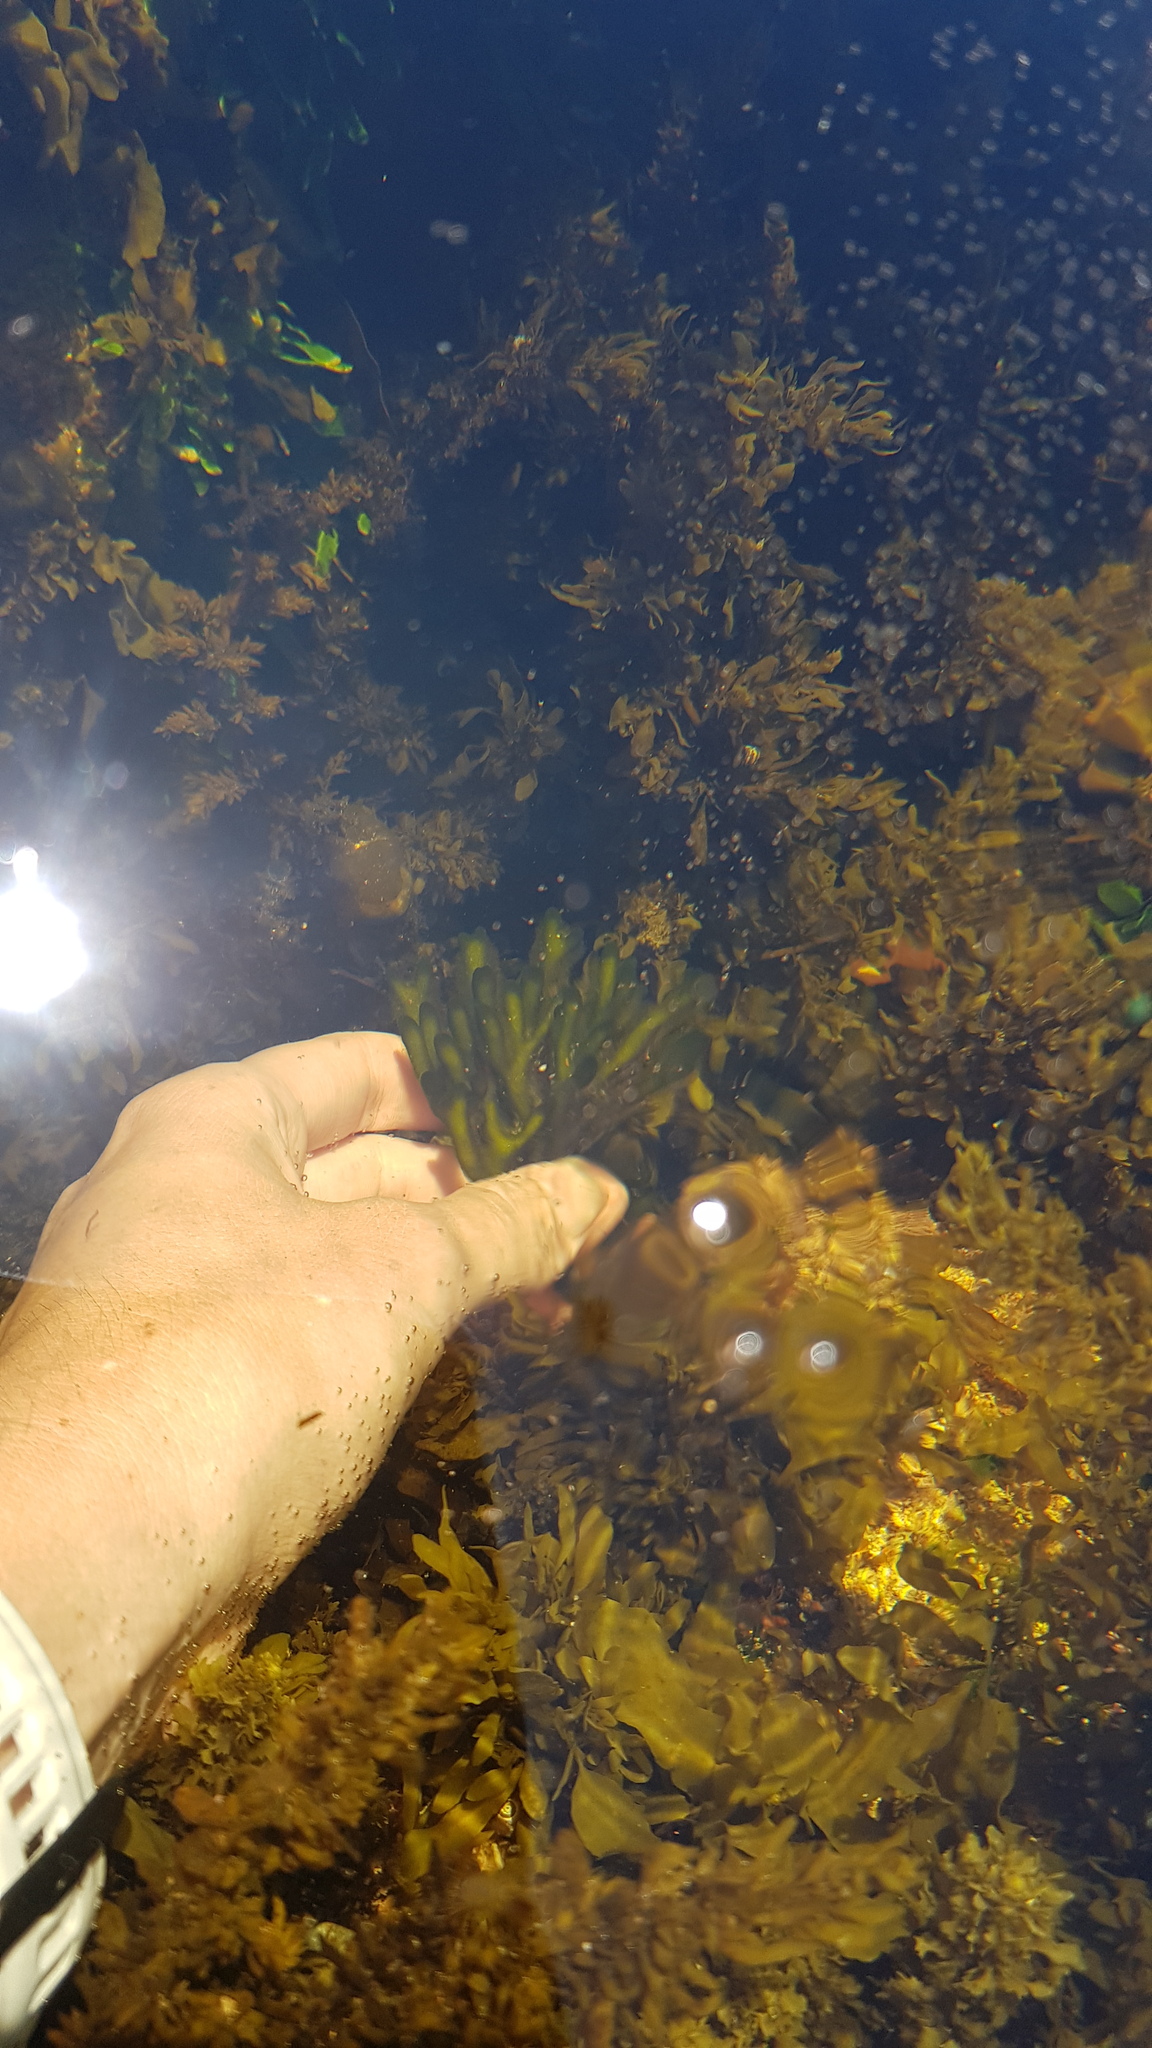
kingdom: Plantae
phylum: Chlorophyta
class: Ulvophyceae
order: Bryopsidales
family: Codiaceae
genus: Codium
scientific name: Codium fragile
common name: Dead man's fingers
